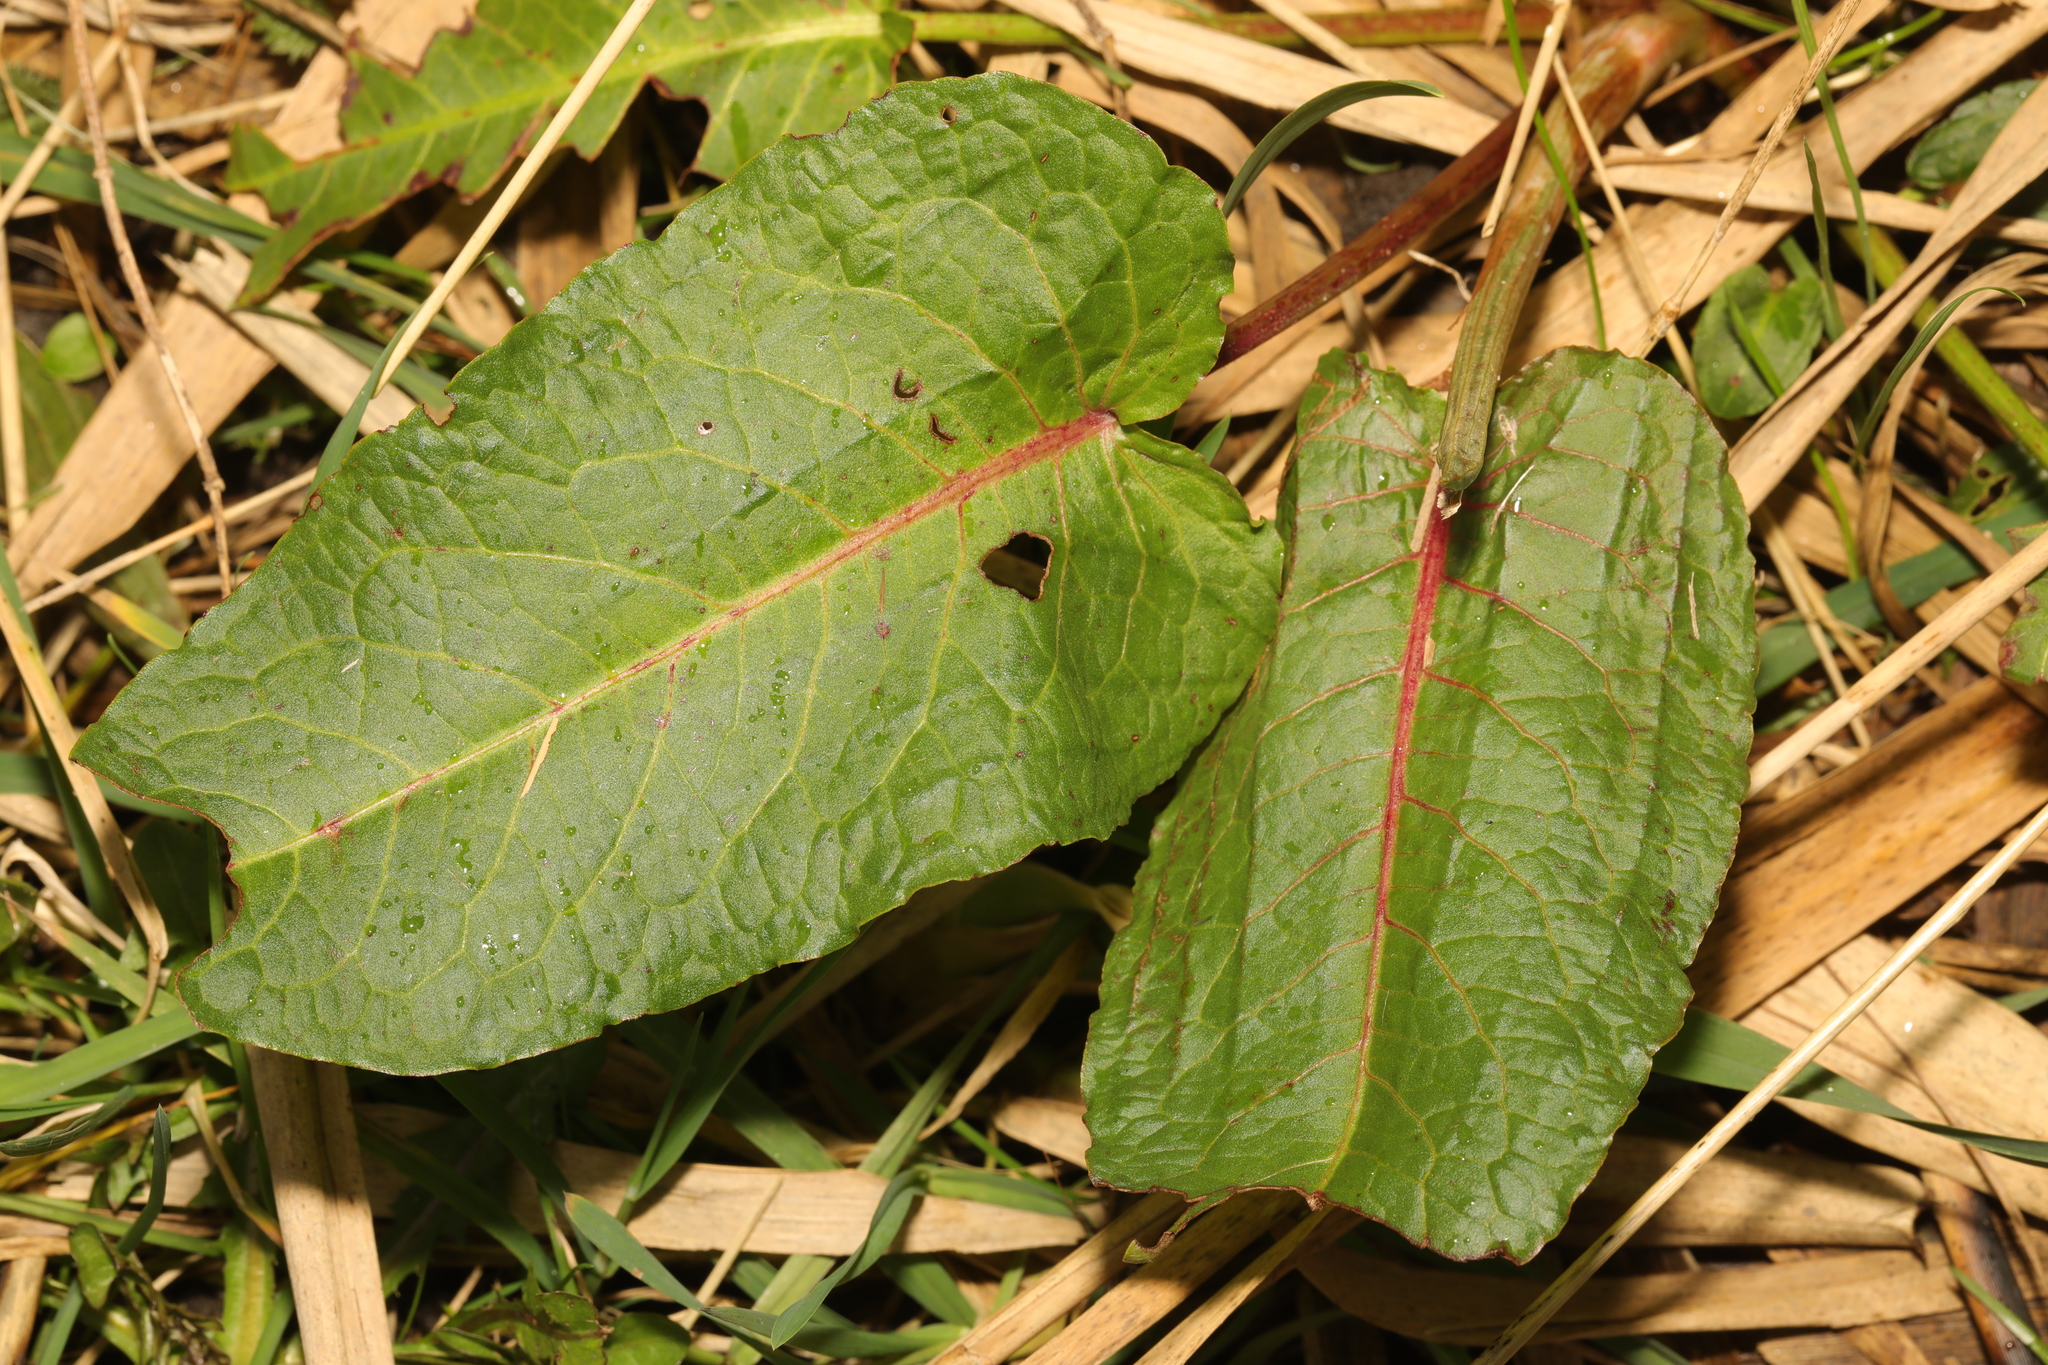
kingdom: Plantae
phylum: Tracheophyta
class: Magnoliopsida
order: Caryophyllales
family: Polygonaceae
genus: Rumex
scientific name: Rumex obtusifolius
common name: Bitter dock
